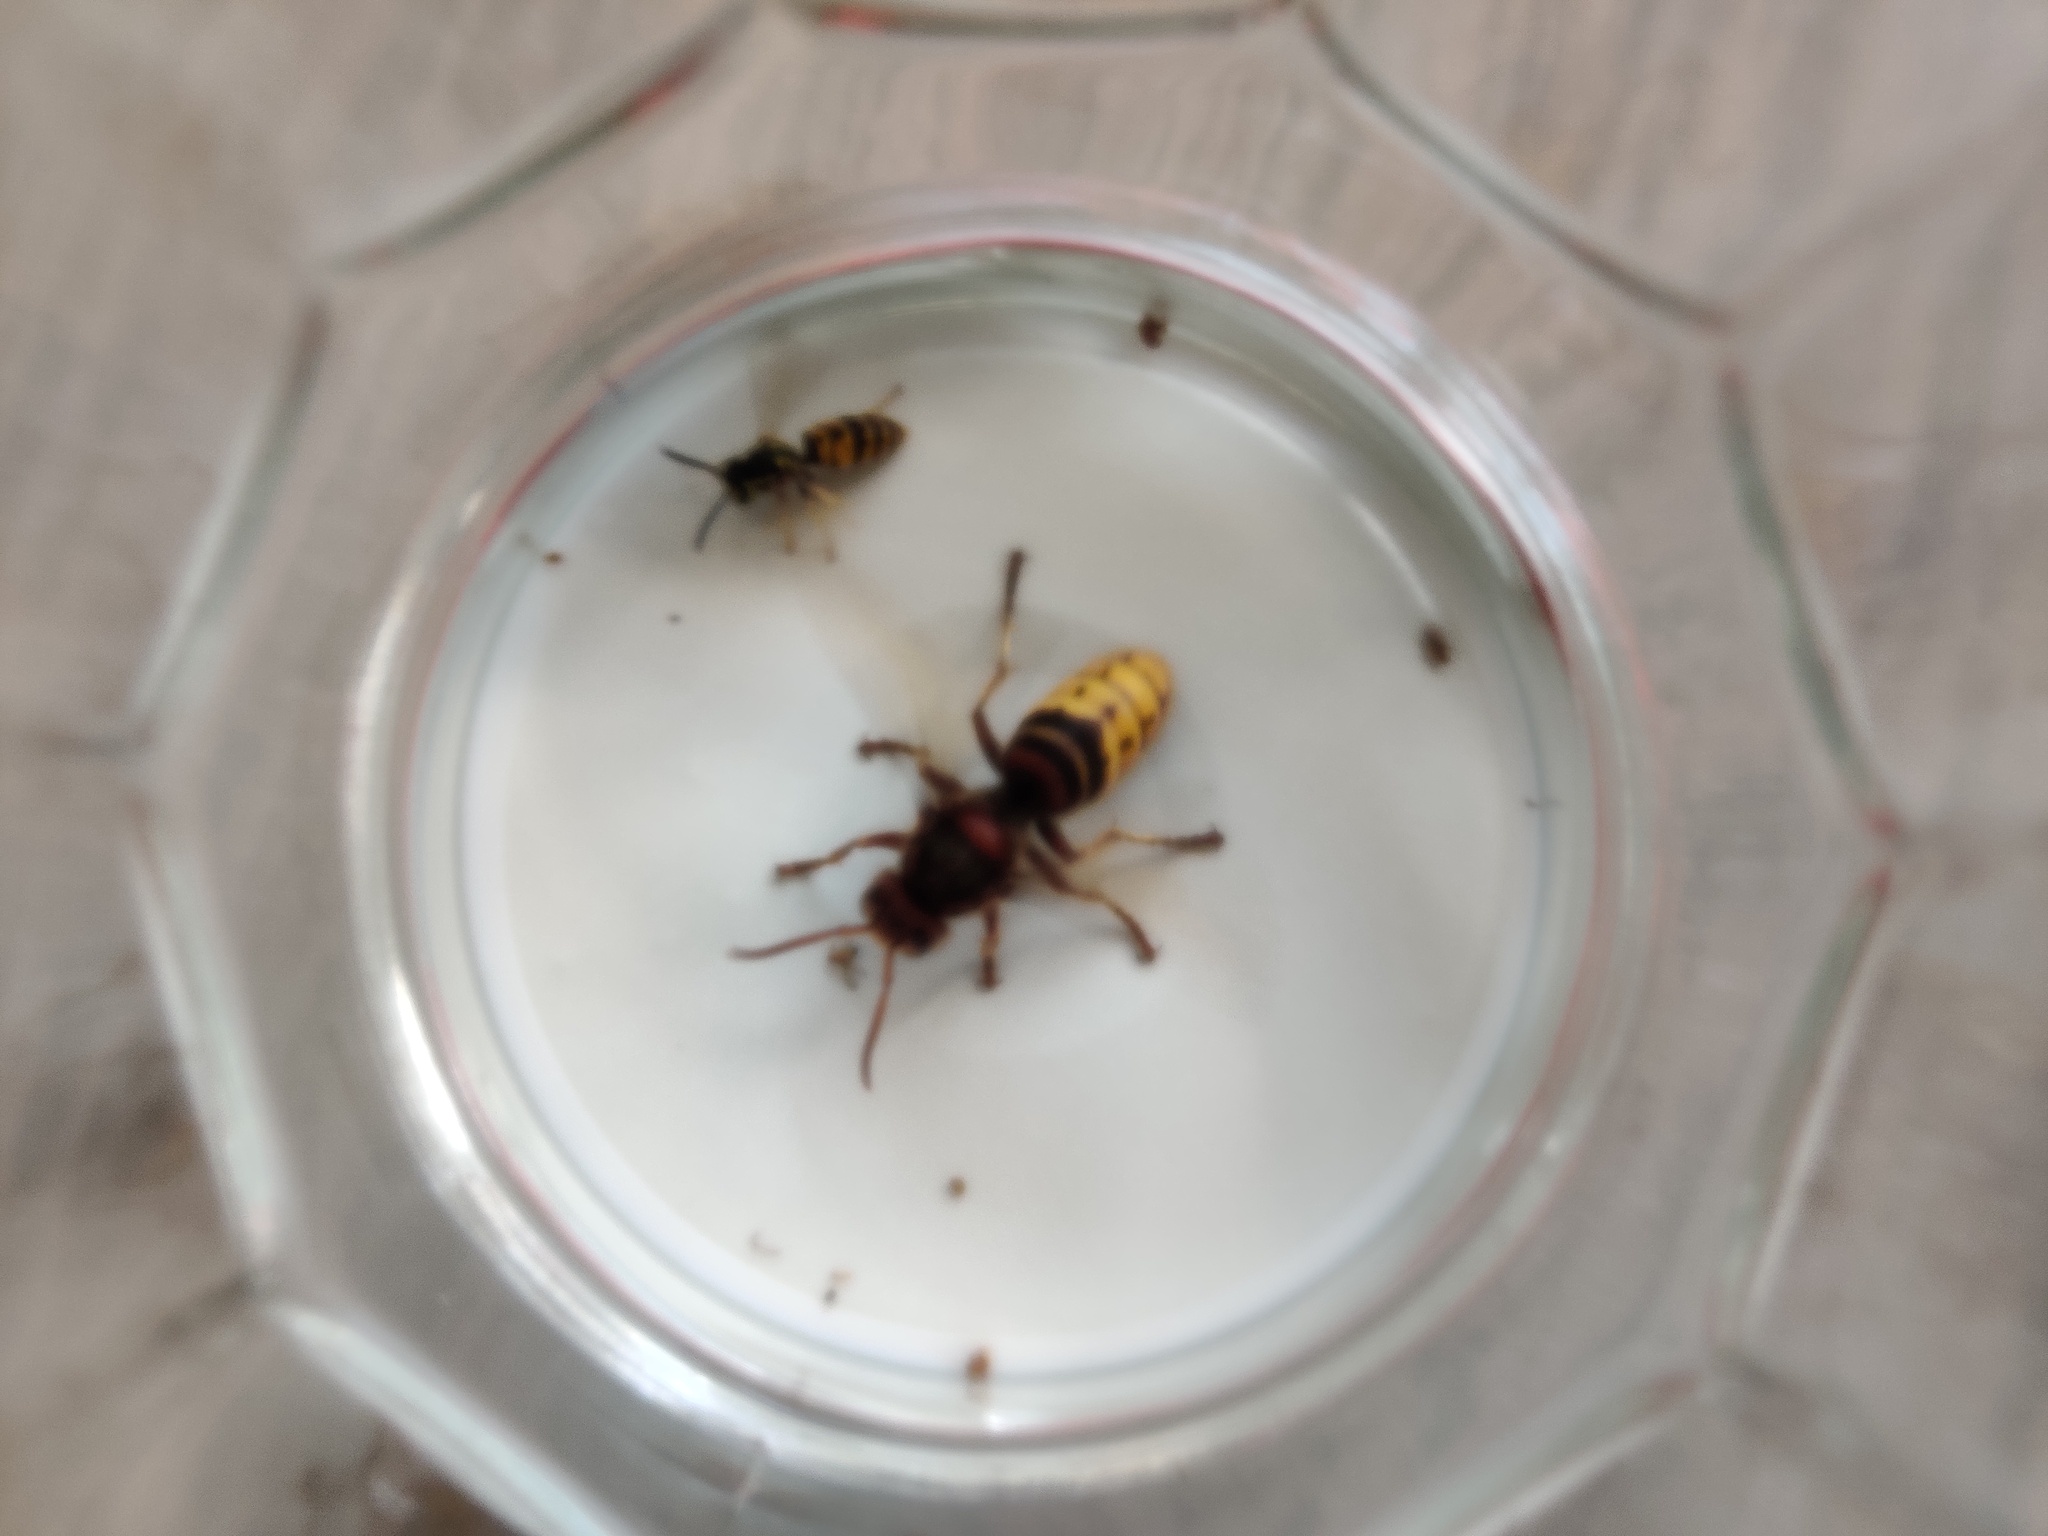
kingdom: Animalia
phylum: Arthropoda
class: Insecta
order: Hymenoptera
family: Vespidae
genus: Vespa
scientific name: Vespa crabro
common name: Hornet
